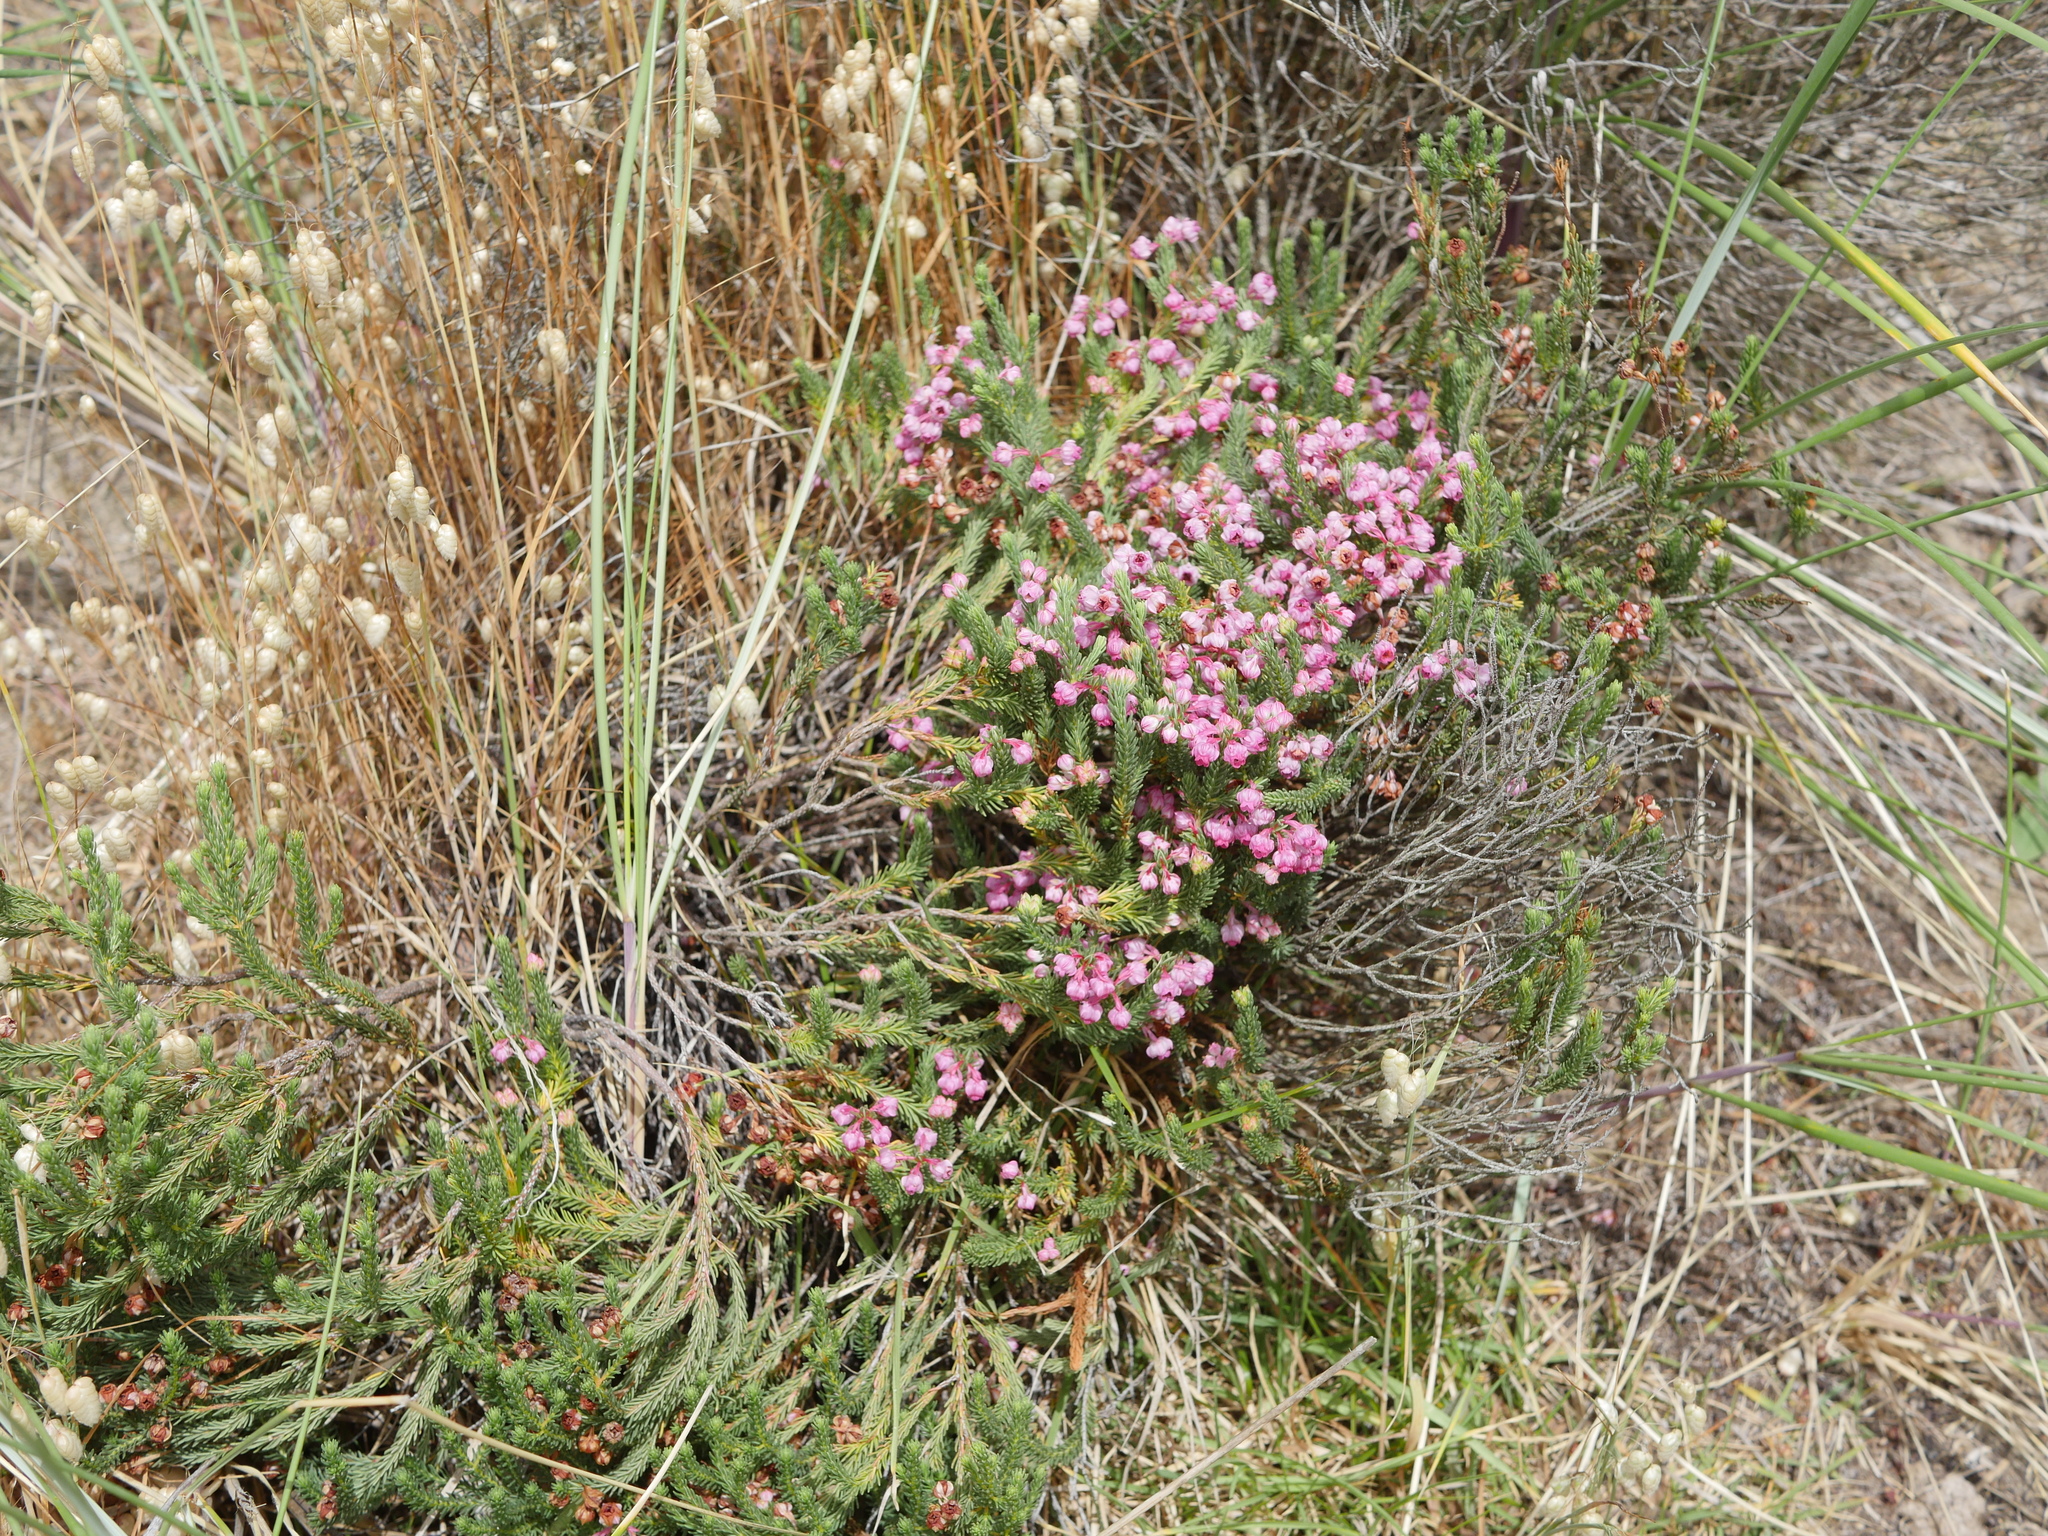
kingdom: Plantae
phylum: Tracheophyta
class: Magnoliopsida
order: Ericales
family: Ericaceae
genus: Erica
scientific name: Erica baccans
